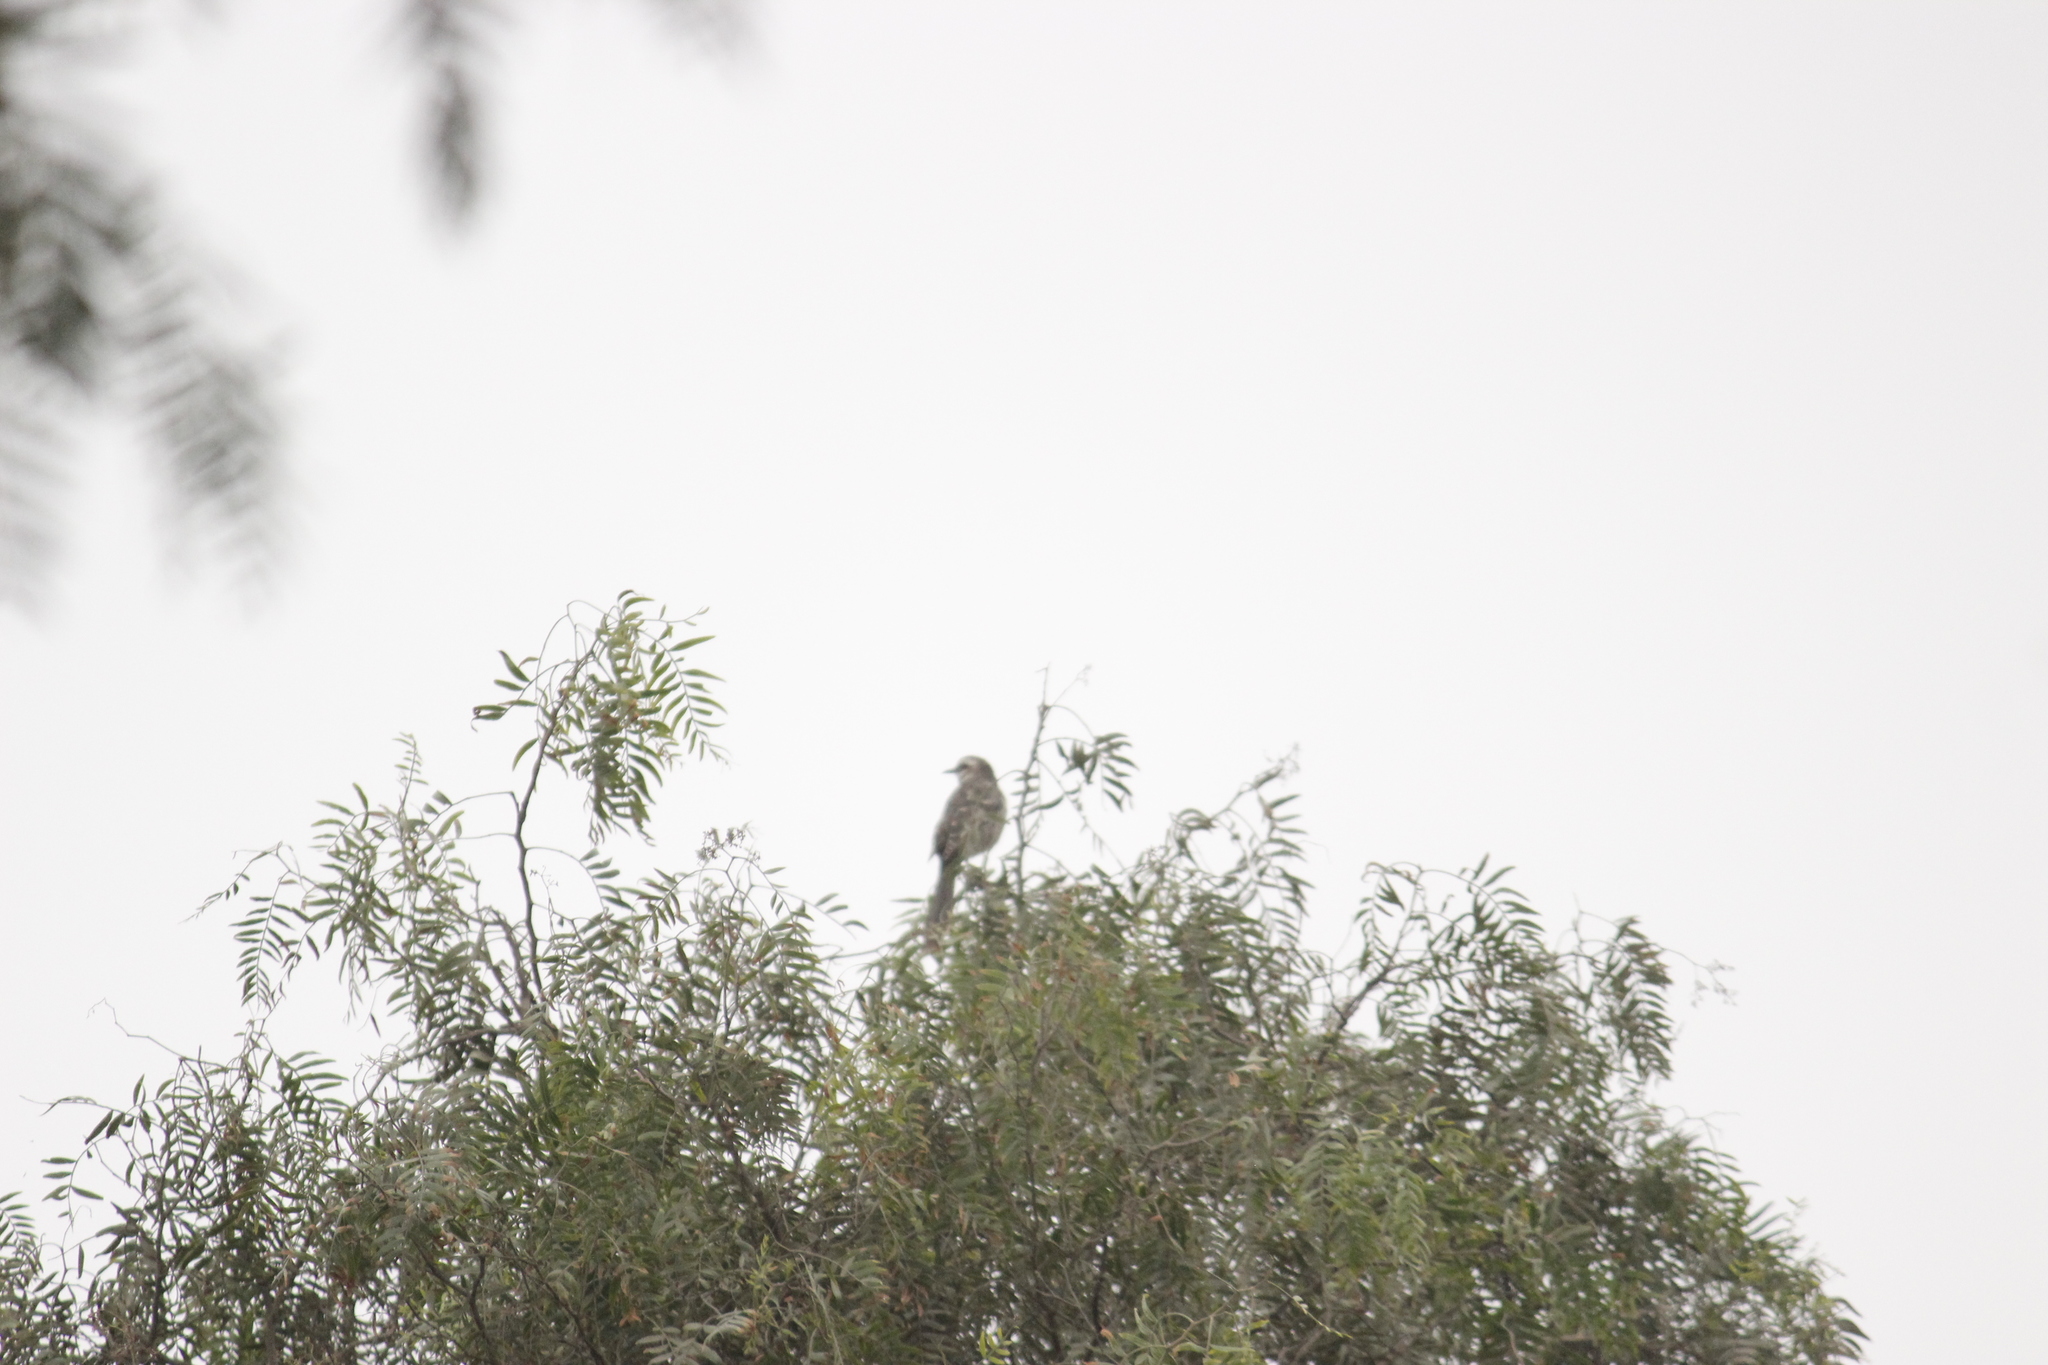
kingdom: Animalia
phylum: Chordata
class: Aves
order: Passeriformes
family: Mimidae
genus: Mimus
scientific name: Mimus longicaudatus
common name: Long-tailed mockingbird
